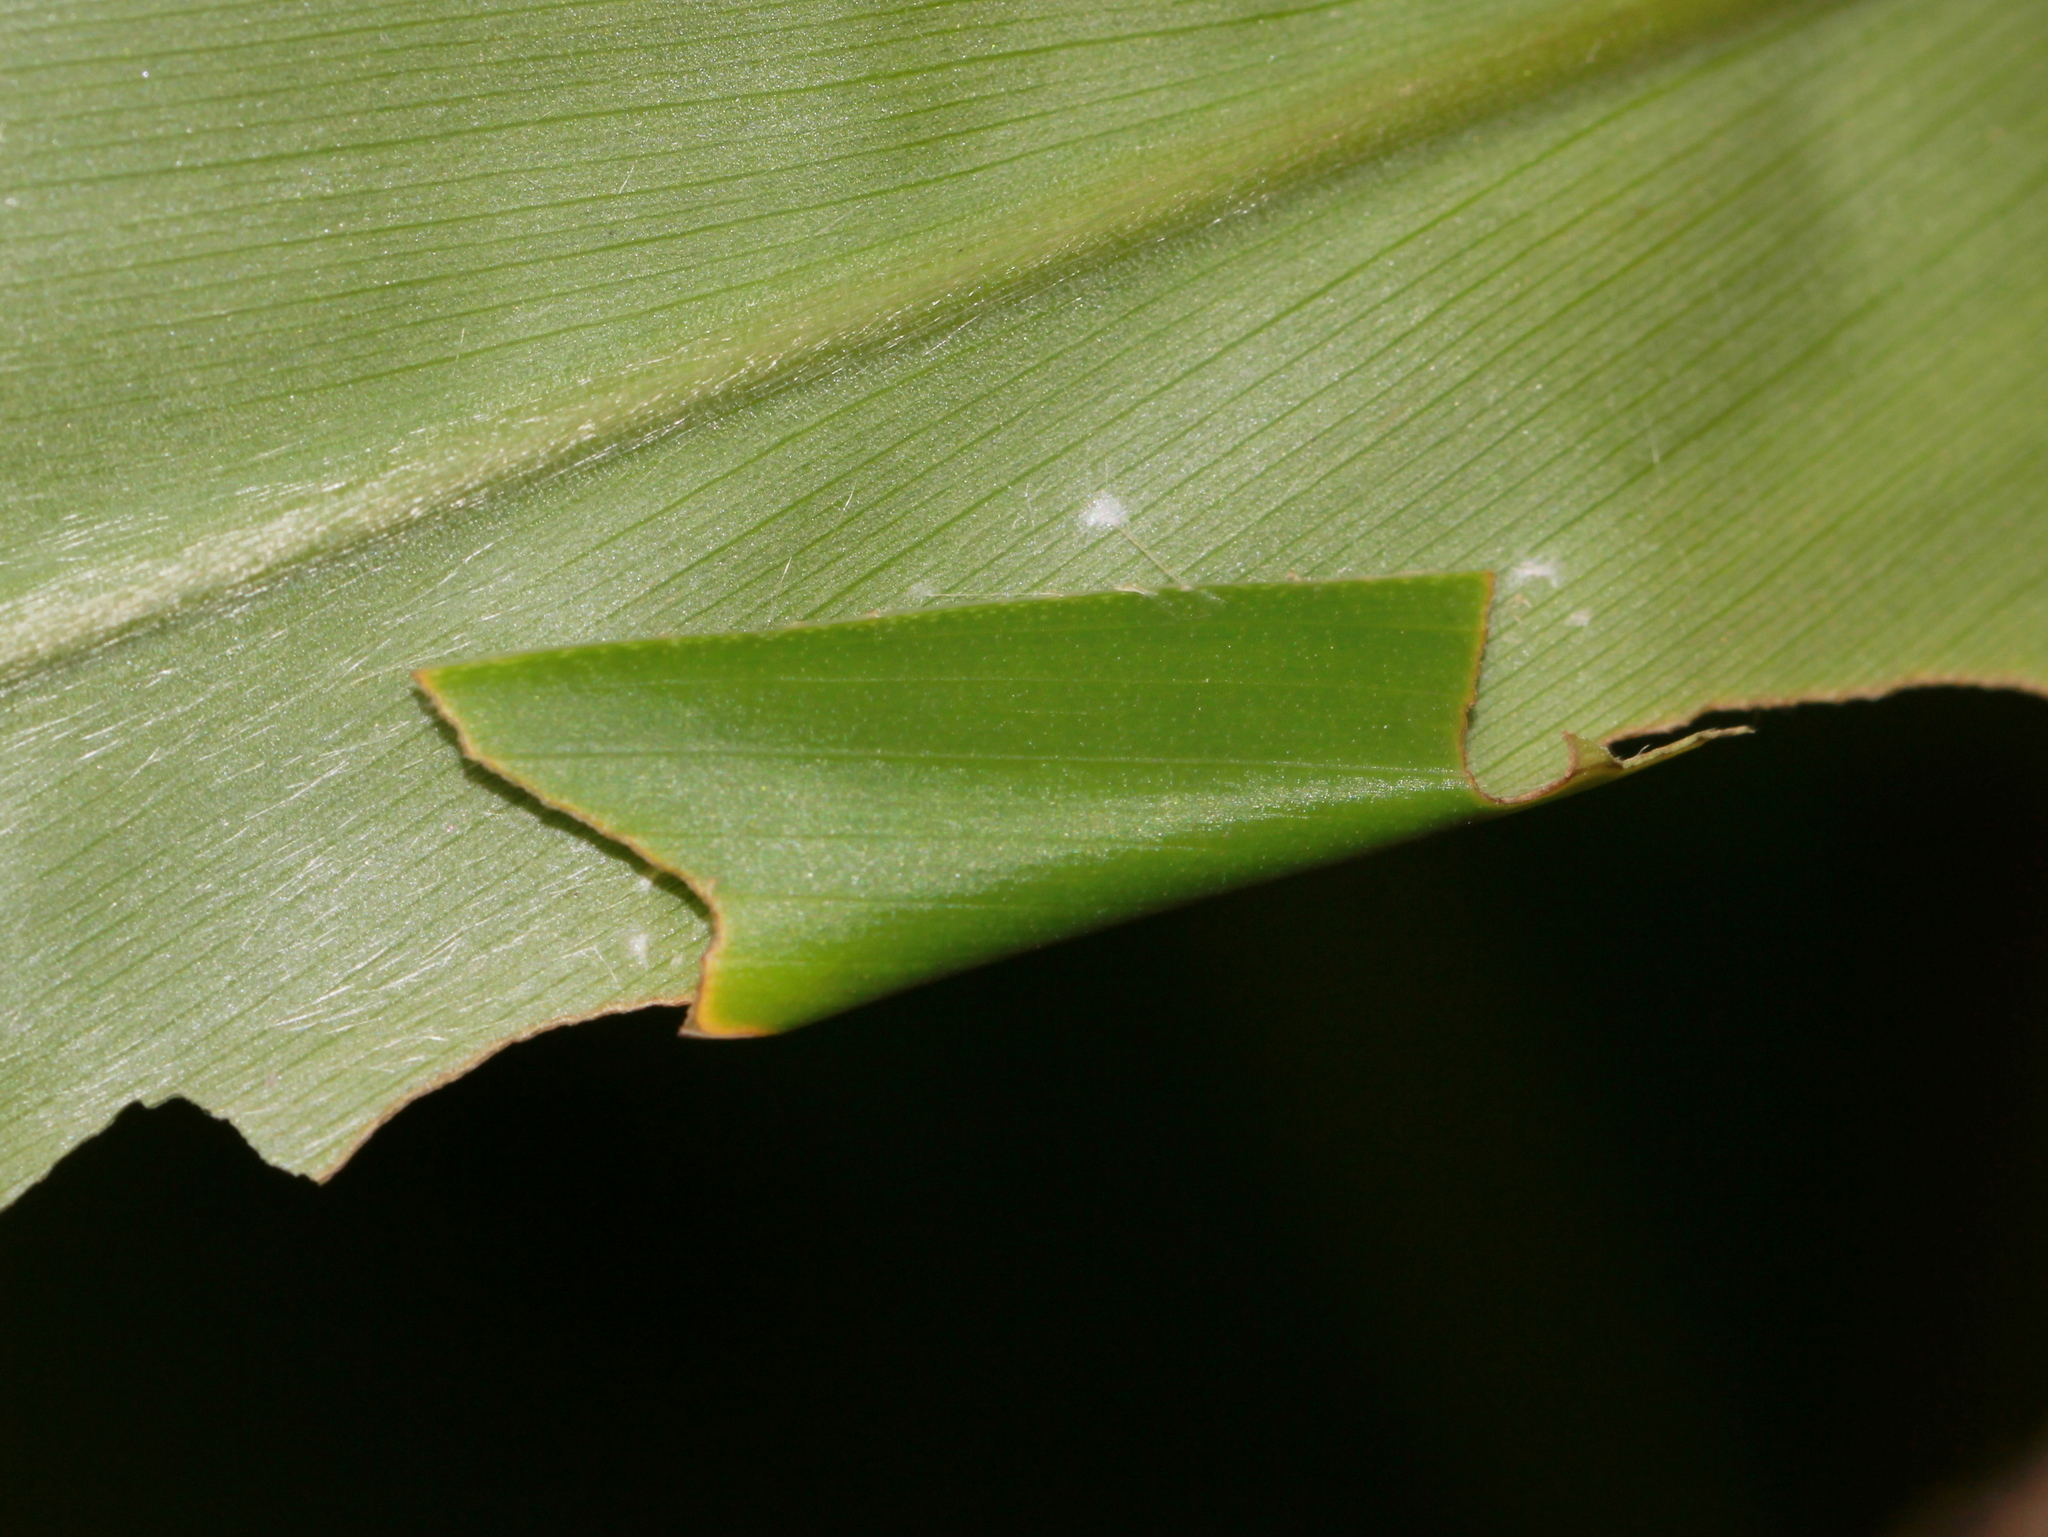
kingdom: Animalia
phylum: Arthropoda
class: Insecta
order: Lepidoptera
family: Hesperiidae
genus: Udaspes
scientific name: Udaspes folus
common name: Grass demon
